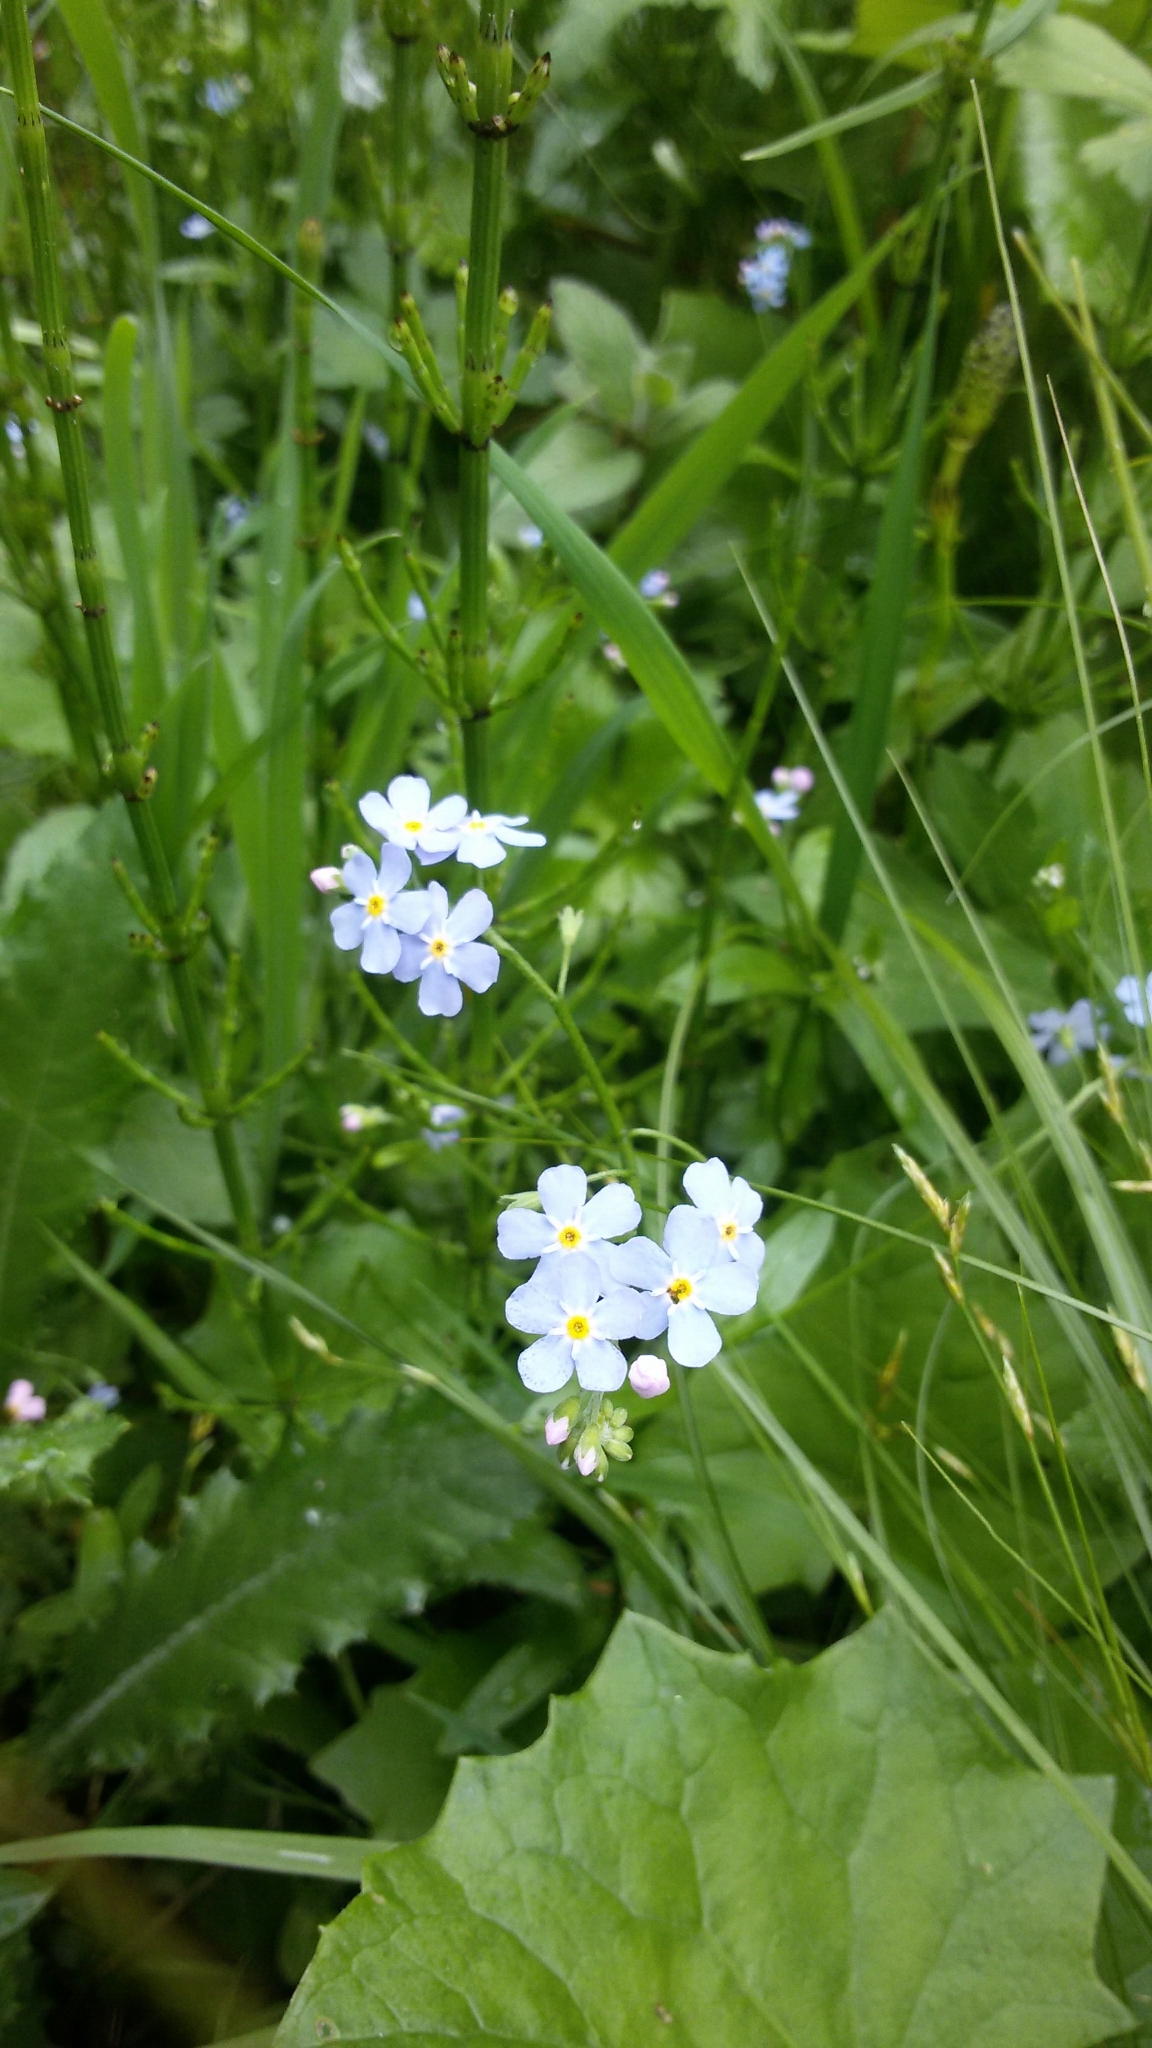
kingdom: Plantae
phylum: Tracheophyta
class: Magnoliopsida
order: Boraginales
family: Boraginaceae
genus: Myosotis
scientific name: Myosotis scorpioides
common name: Water forget-me-not
